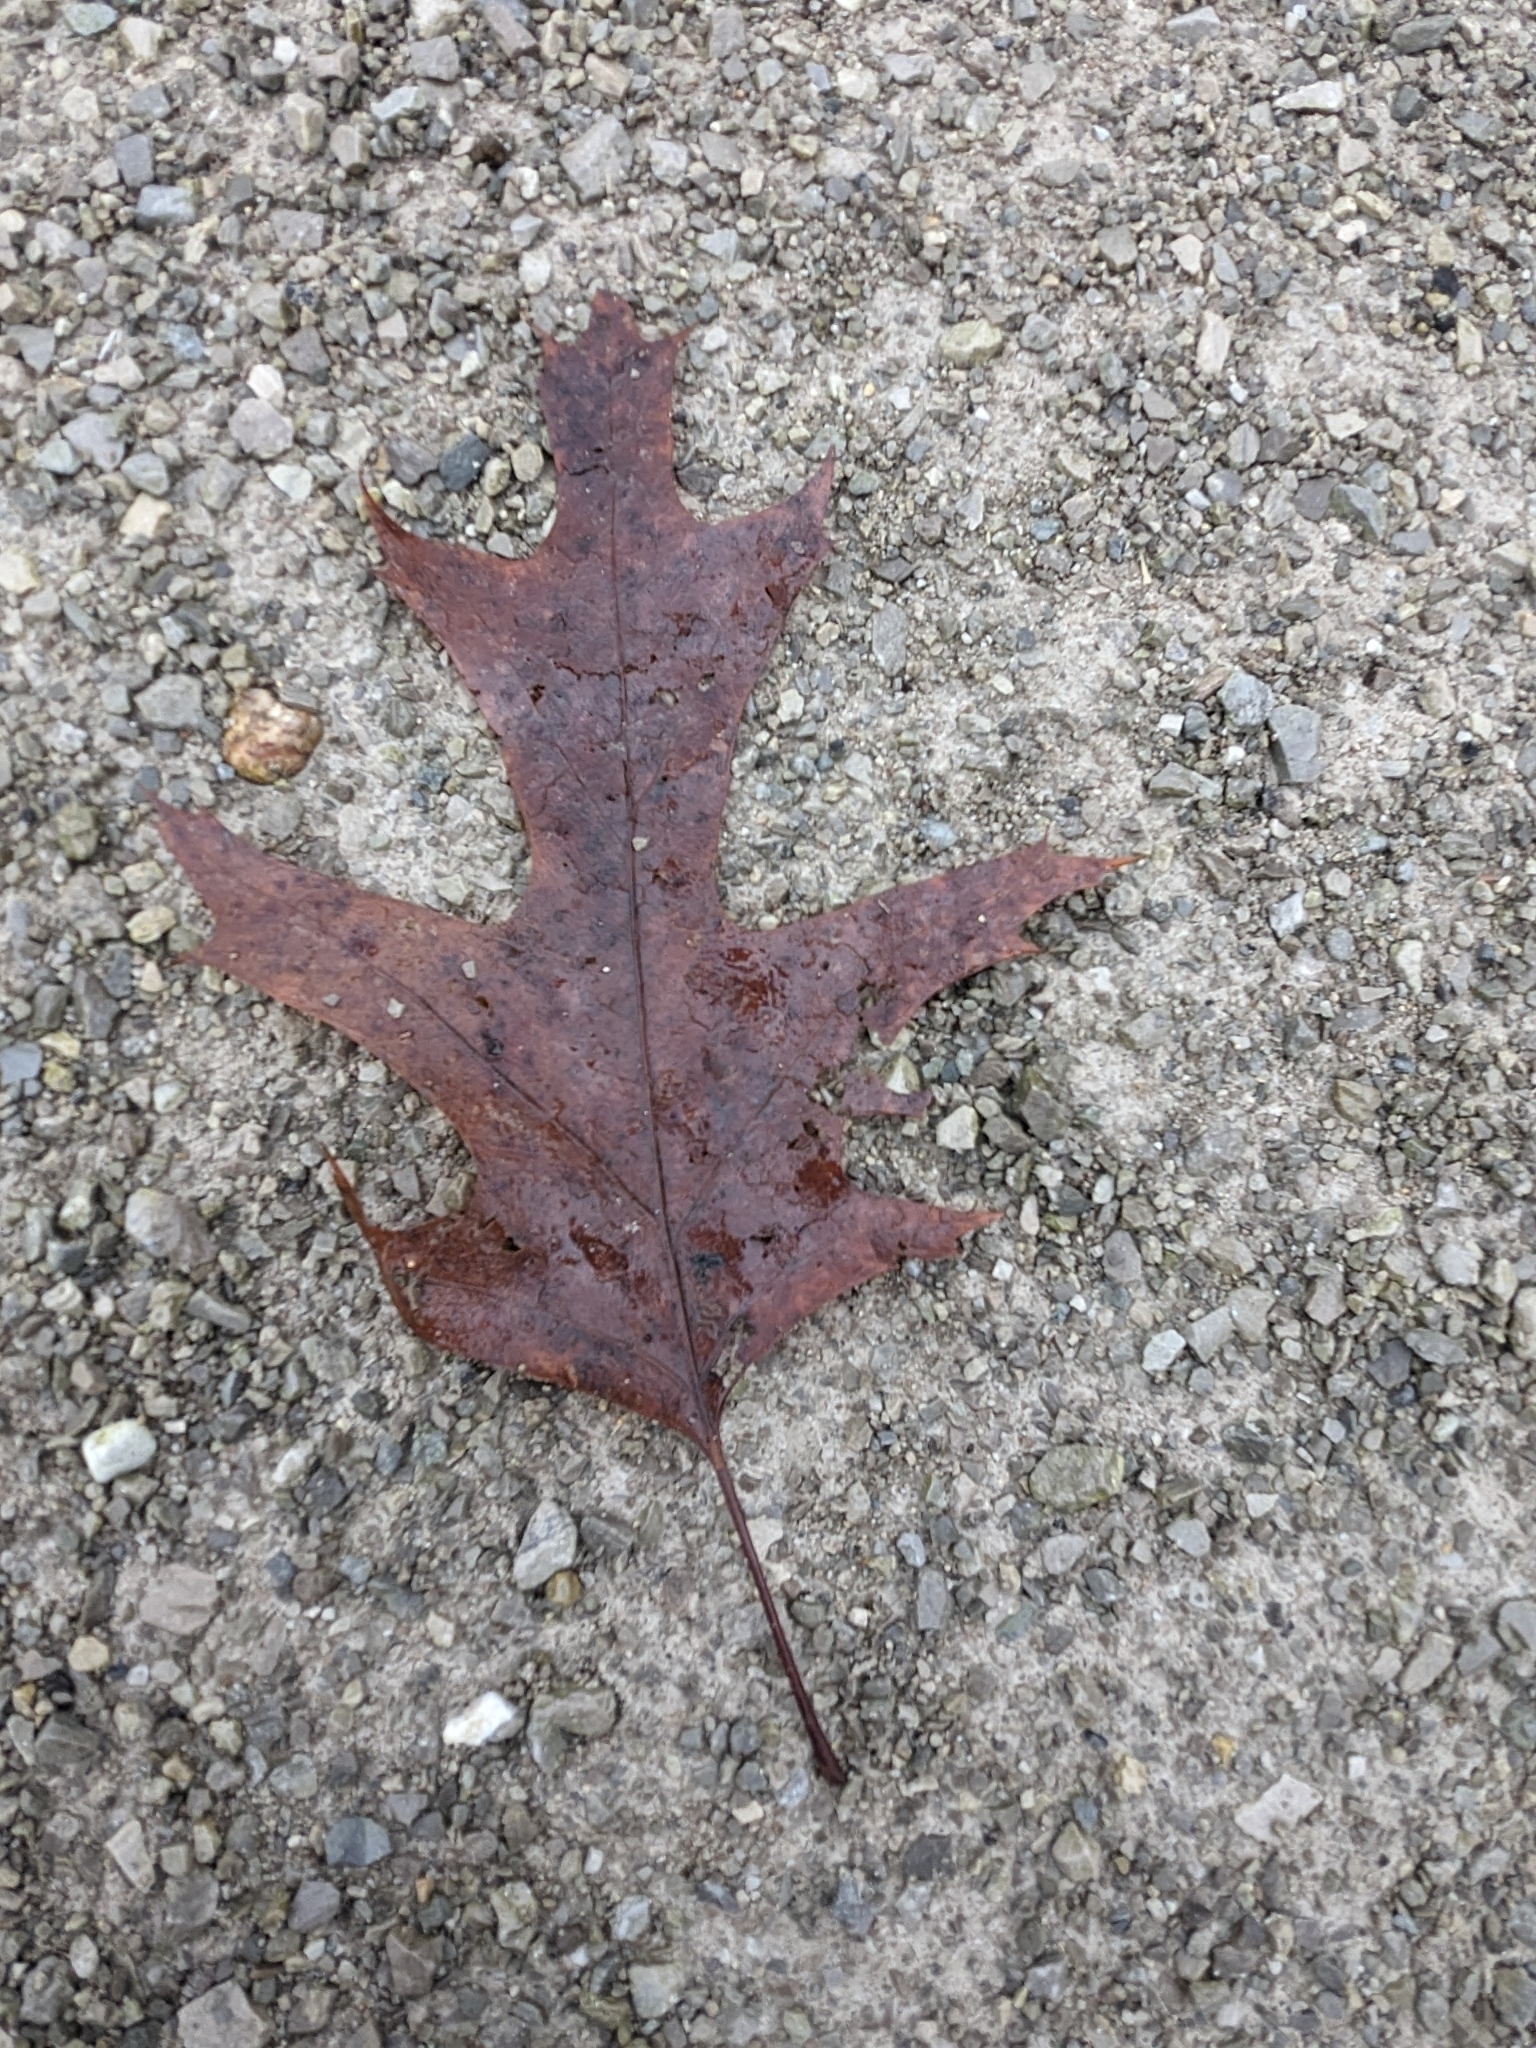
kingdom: Plantae
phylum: Tracheophyta
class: Magnoliopsida
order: Fagales
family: Fagaceae
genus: Quercus
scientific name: Quercus rubra
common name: Red oak
